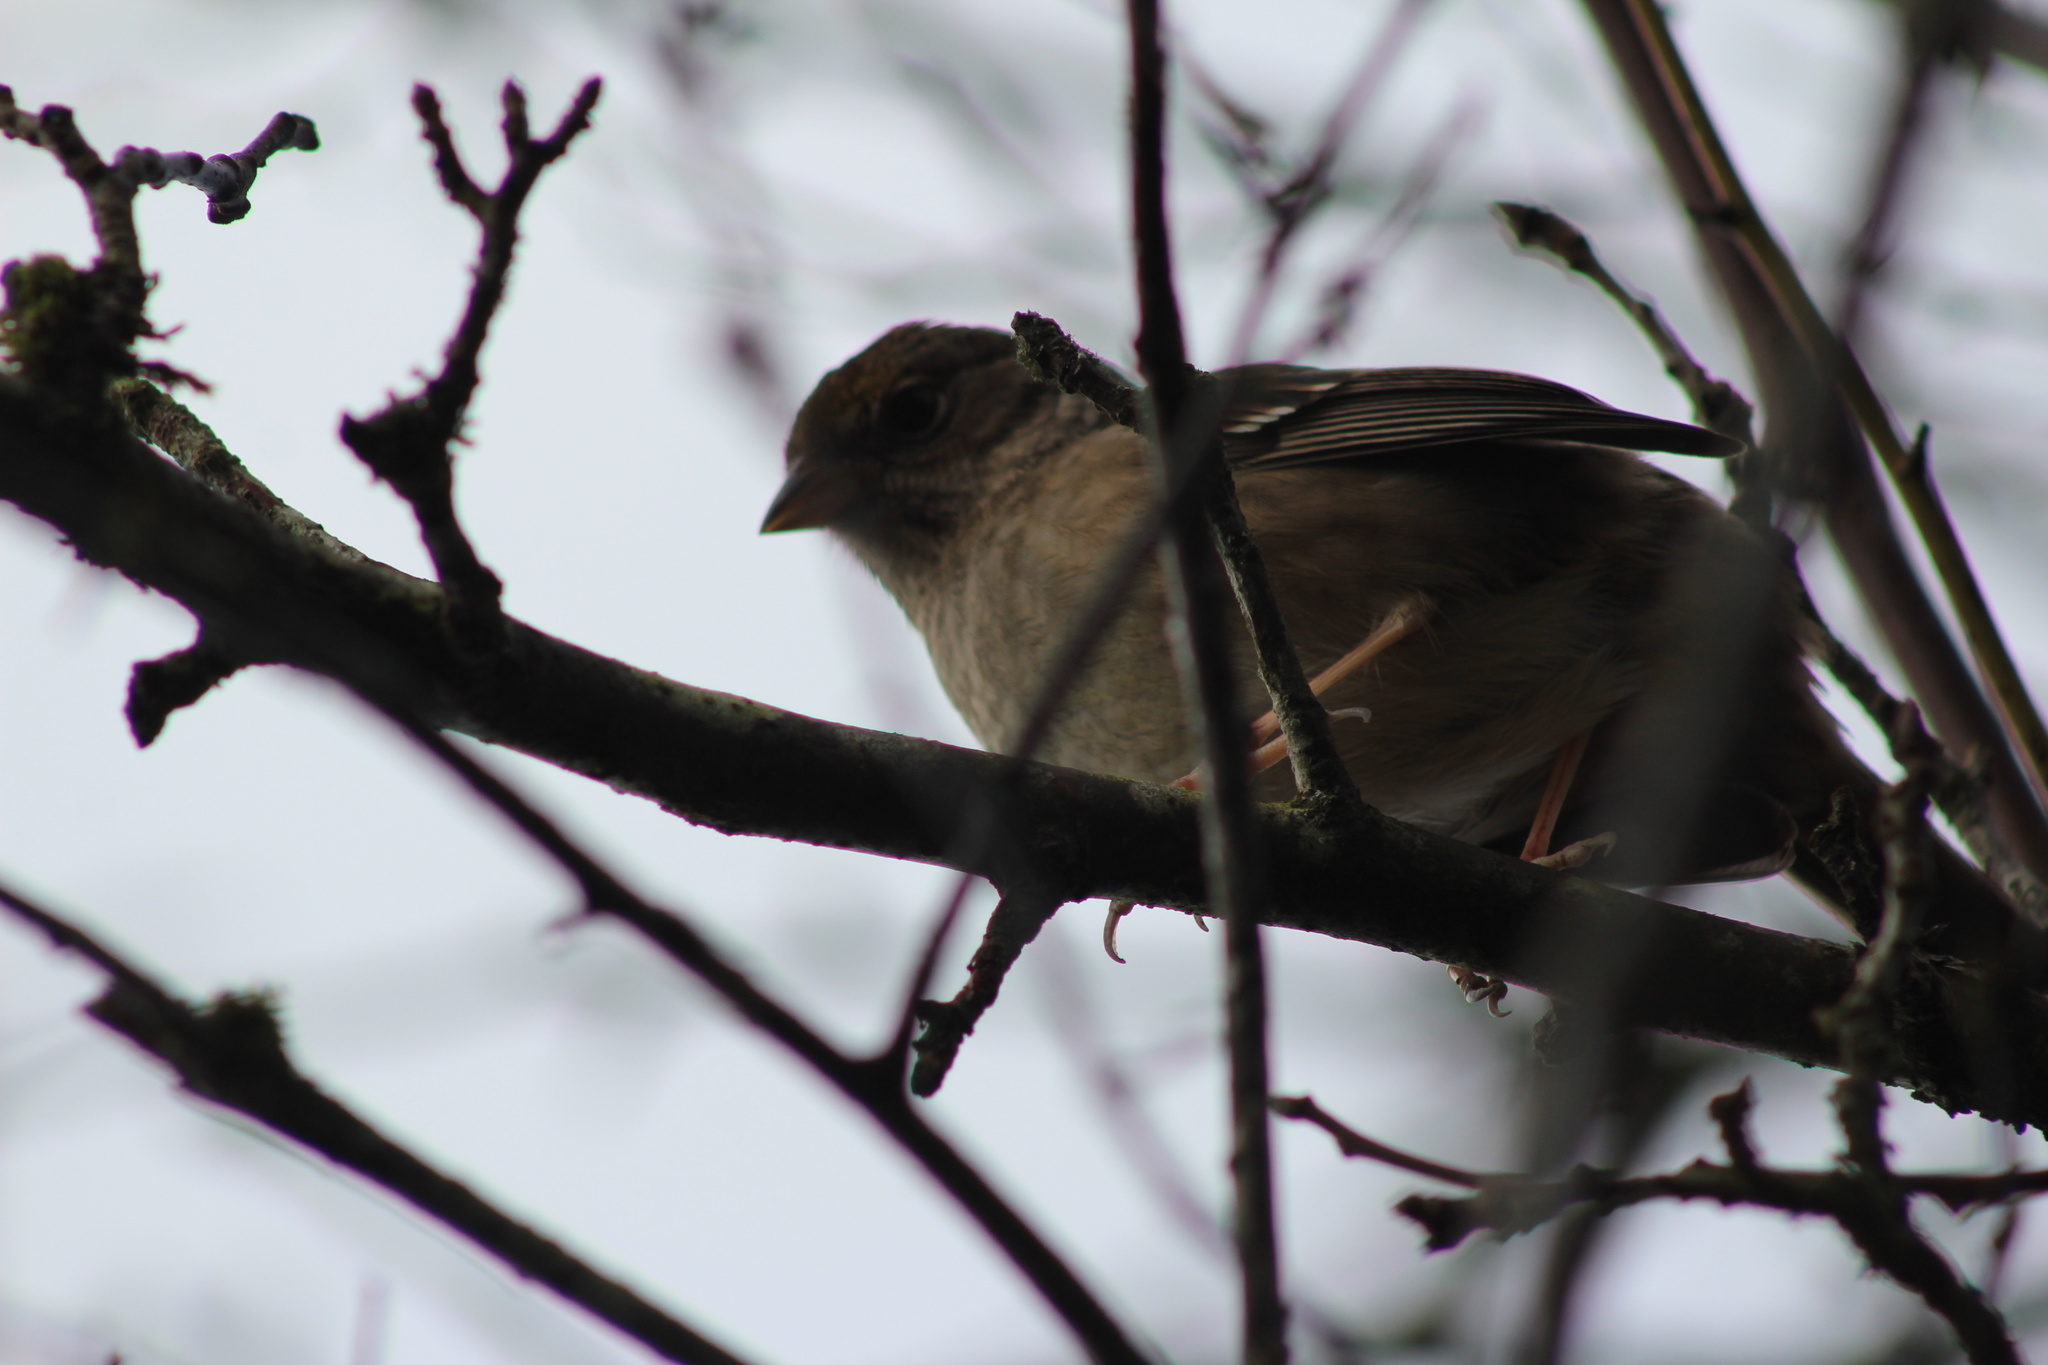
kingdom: Animalia
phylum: Chordata
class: Aves
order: Passeriformes
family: Passerellidae
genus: Zonotrichia
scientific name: Zonotrichia atricapilla
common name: Golden-crowned sparrow
